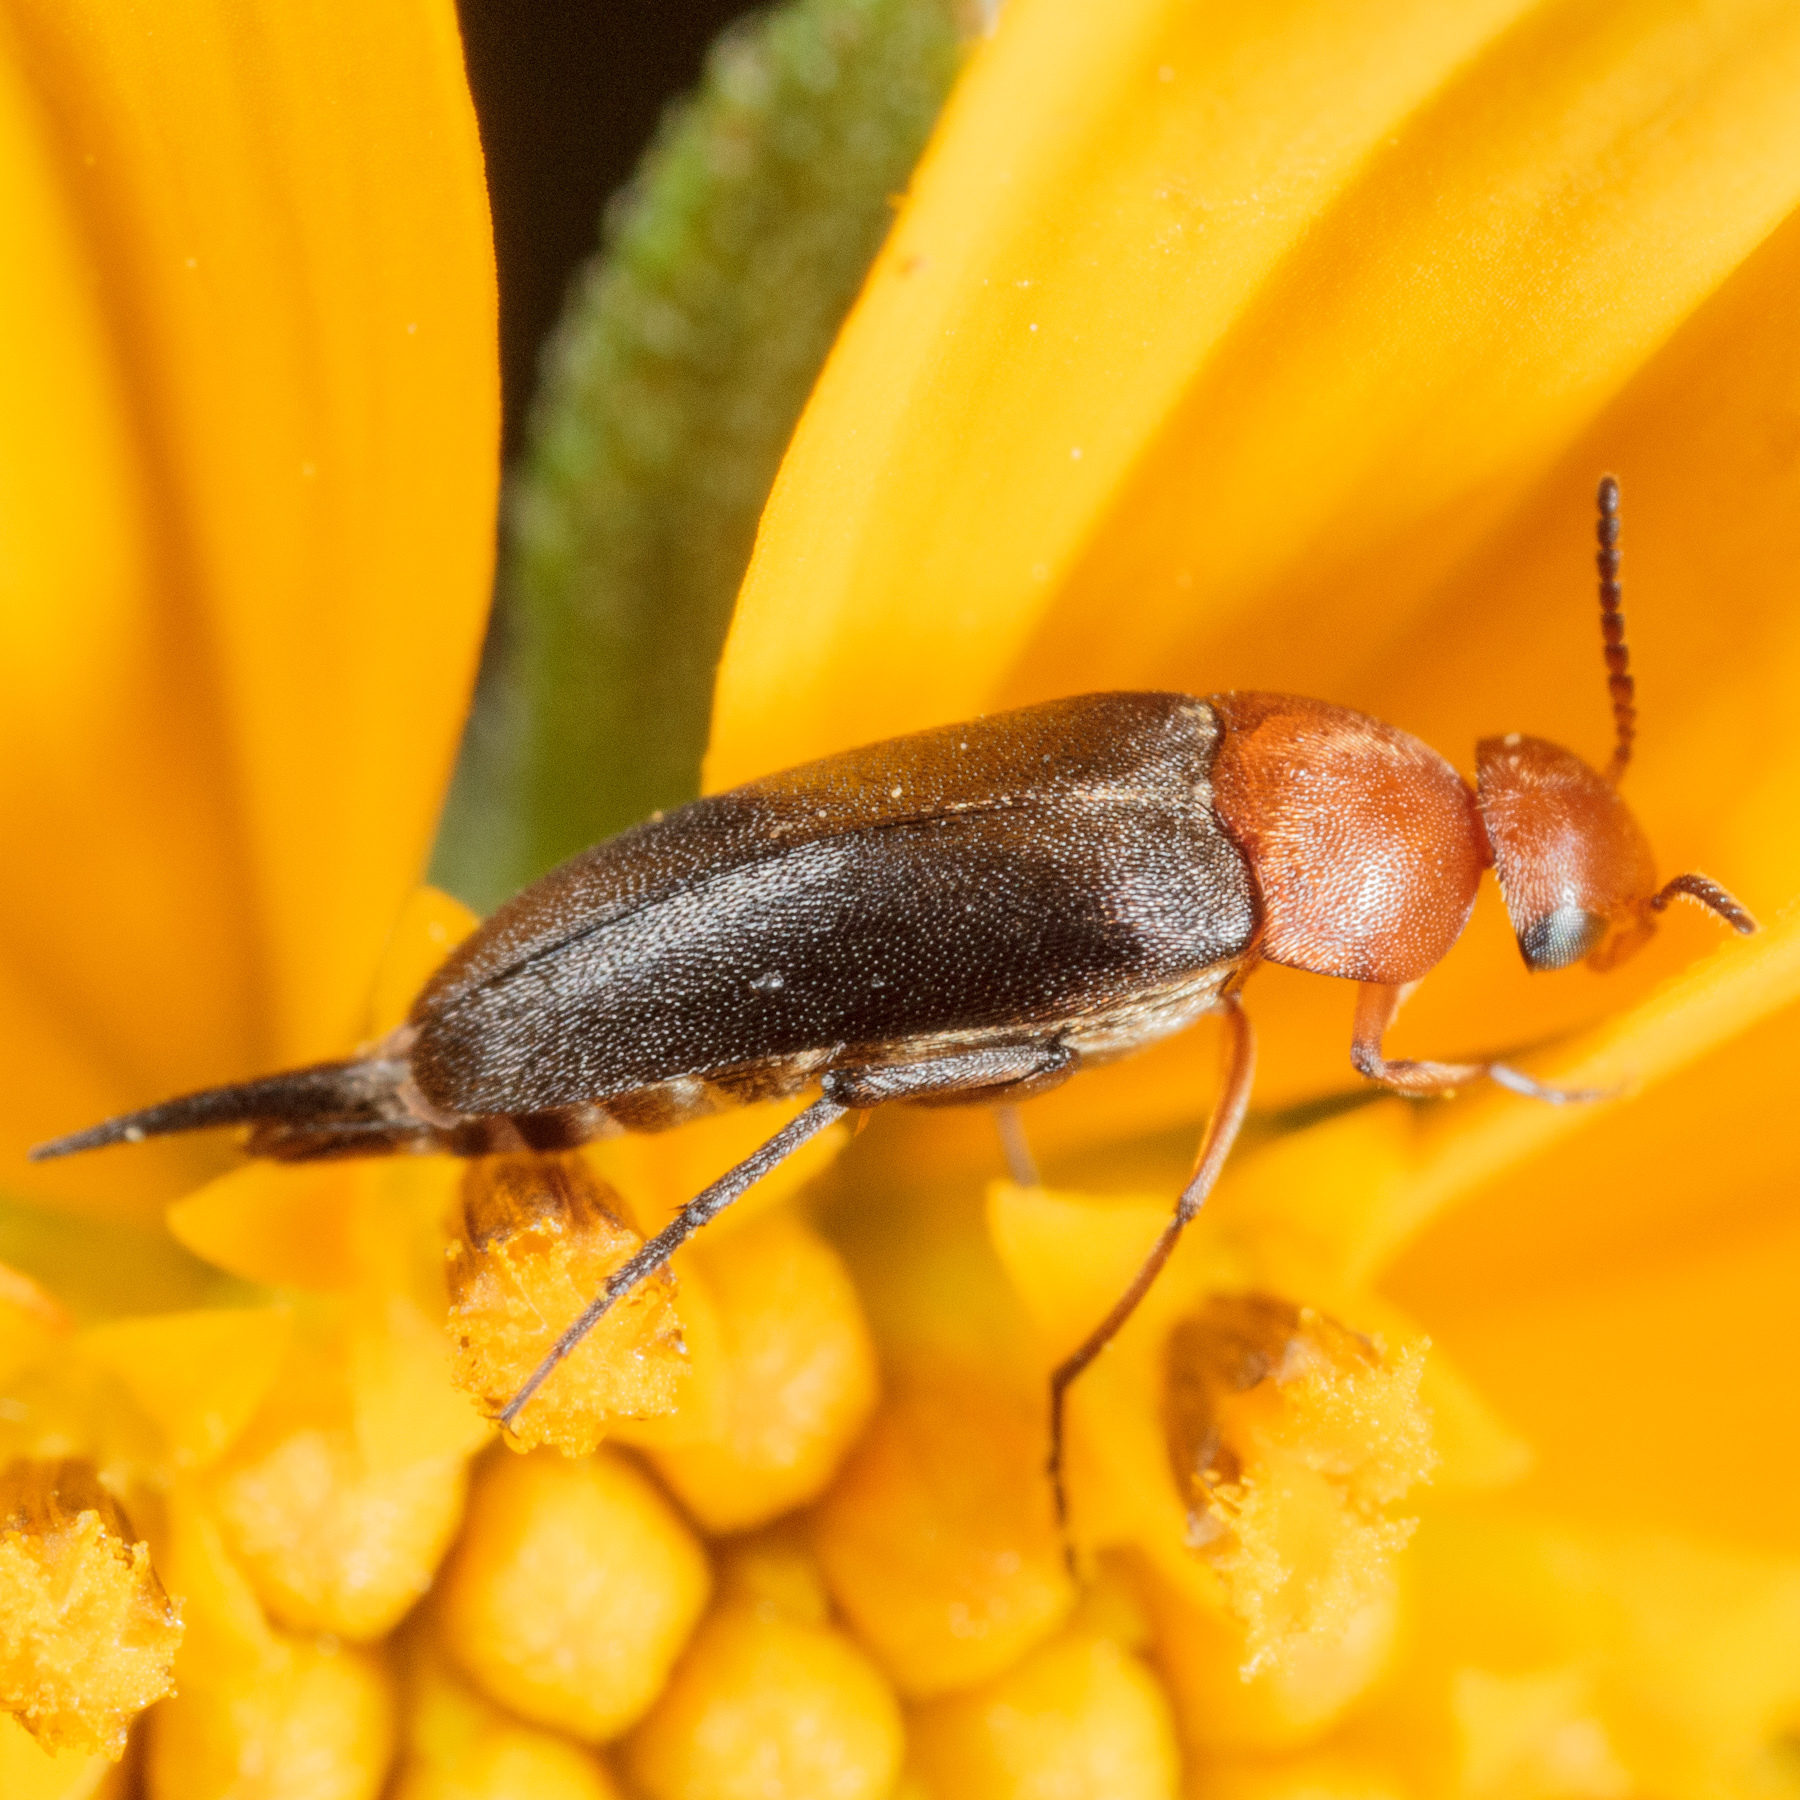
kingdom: Animalia
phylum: Arthropoda
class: Insecta
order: Coleoptera
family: Mordellidae
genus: Mordellistena
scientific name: Mordellistena cervicalis
